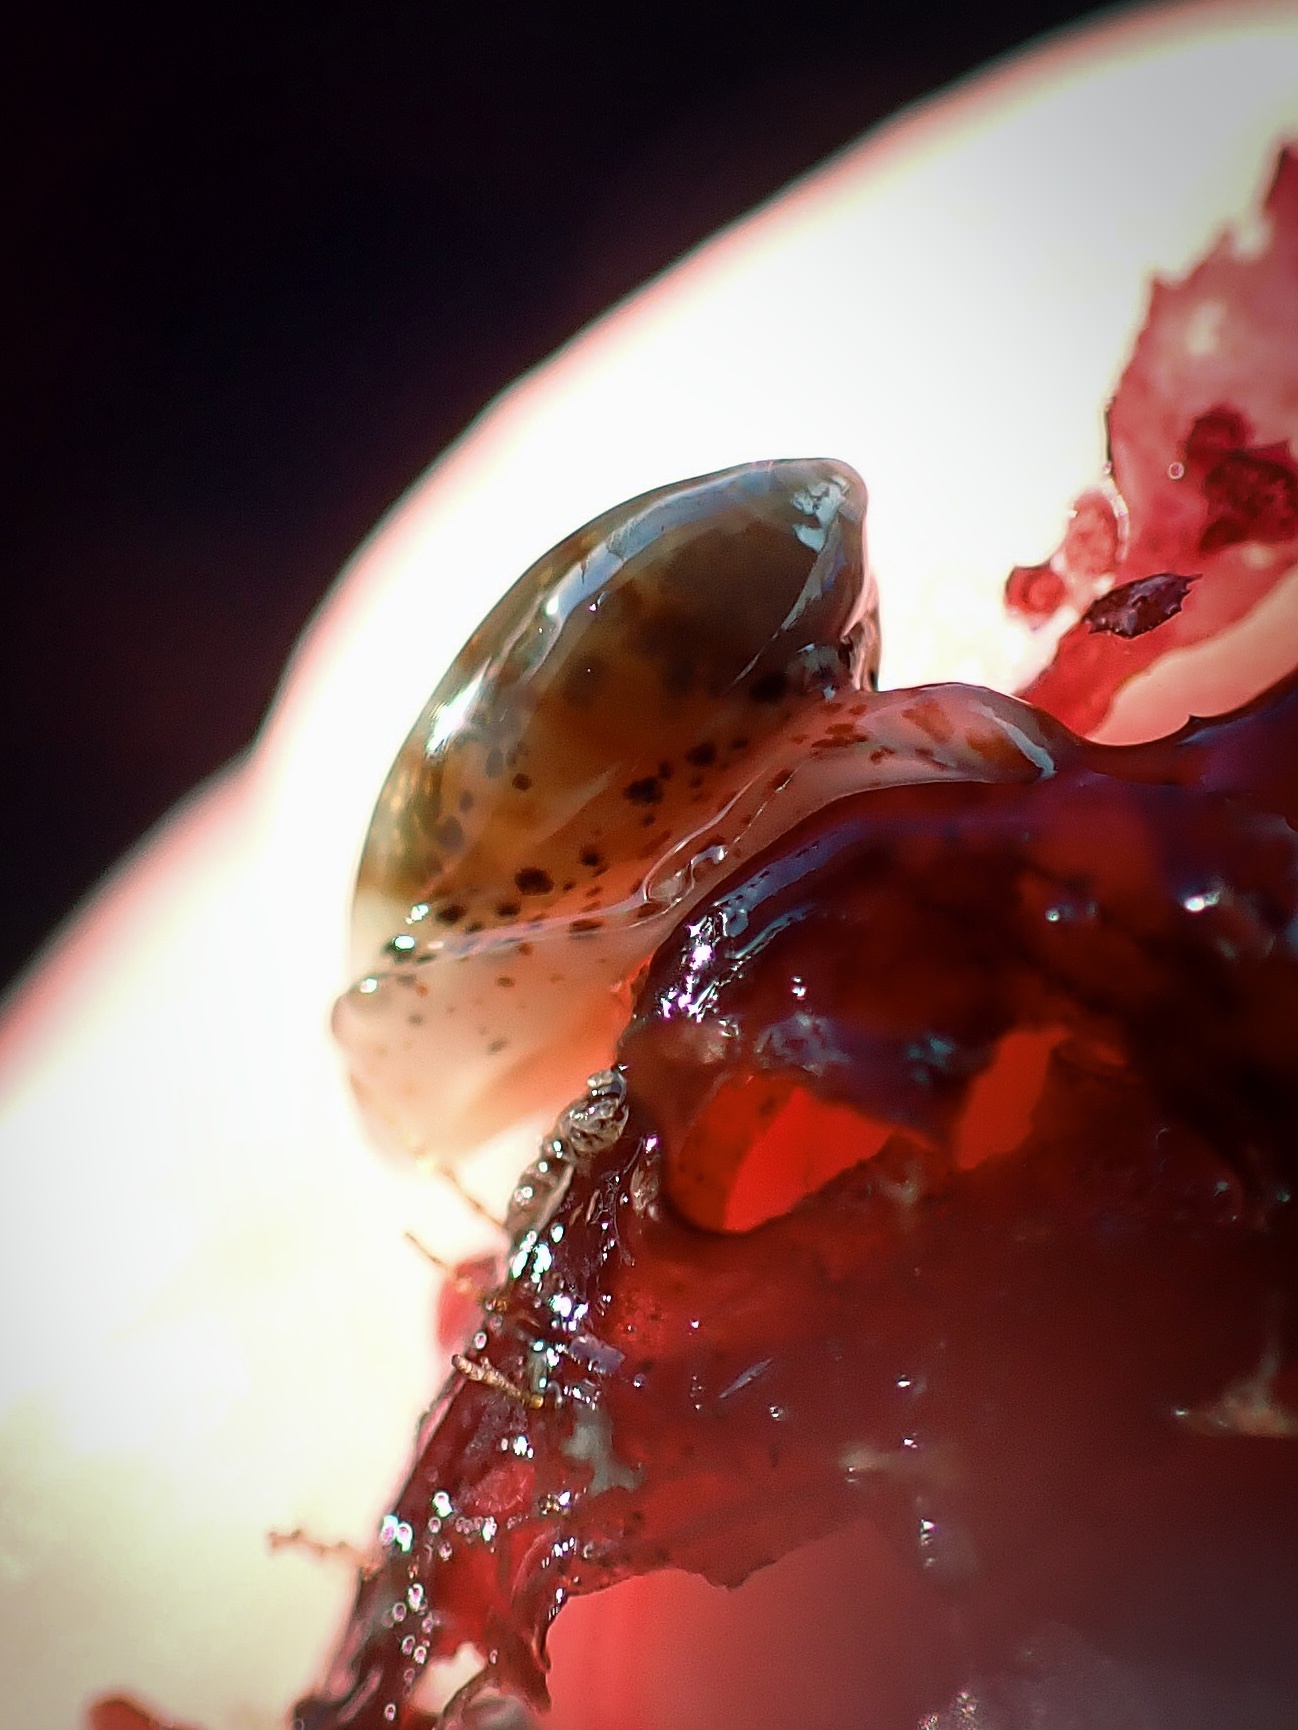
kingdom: Animalia
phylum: Mollusca
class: Gastropoda
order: Neogastropoda
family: Marginellidae
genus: Volvarina
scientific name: Volvarina taeniolata
